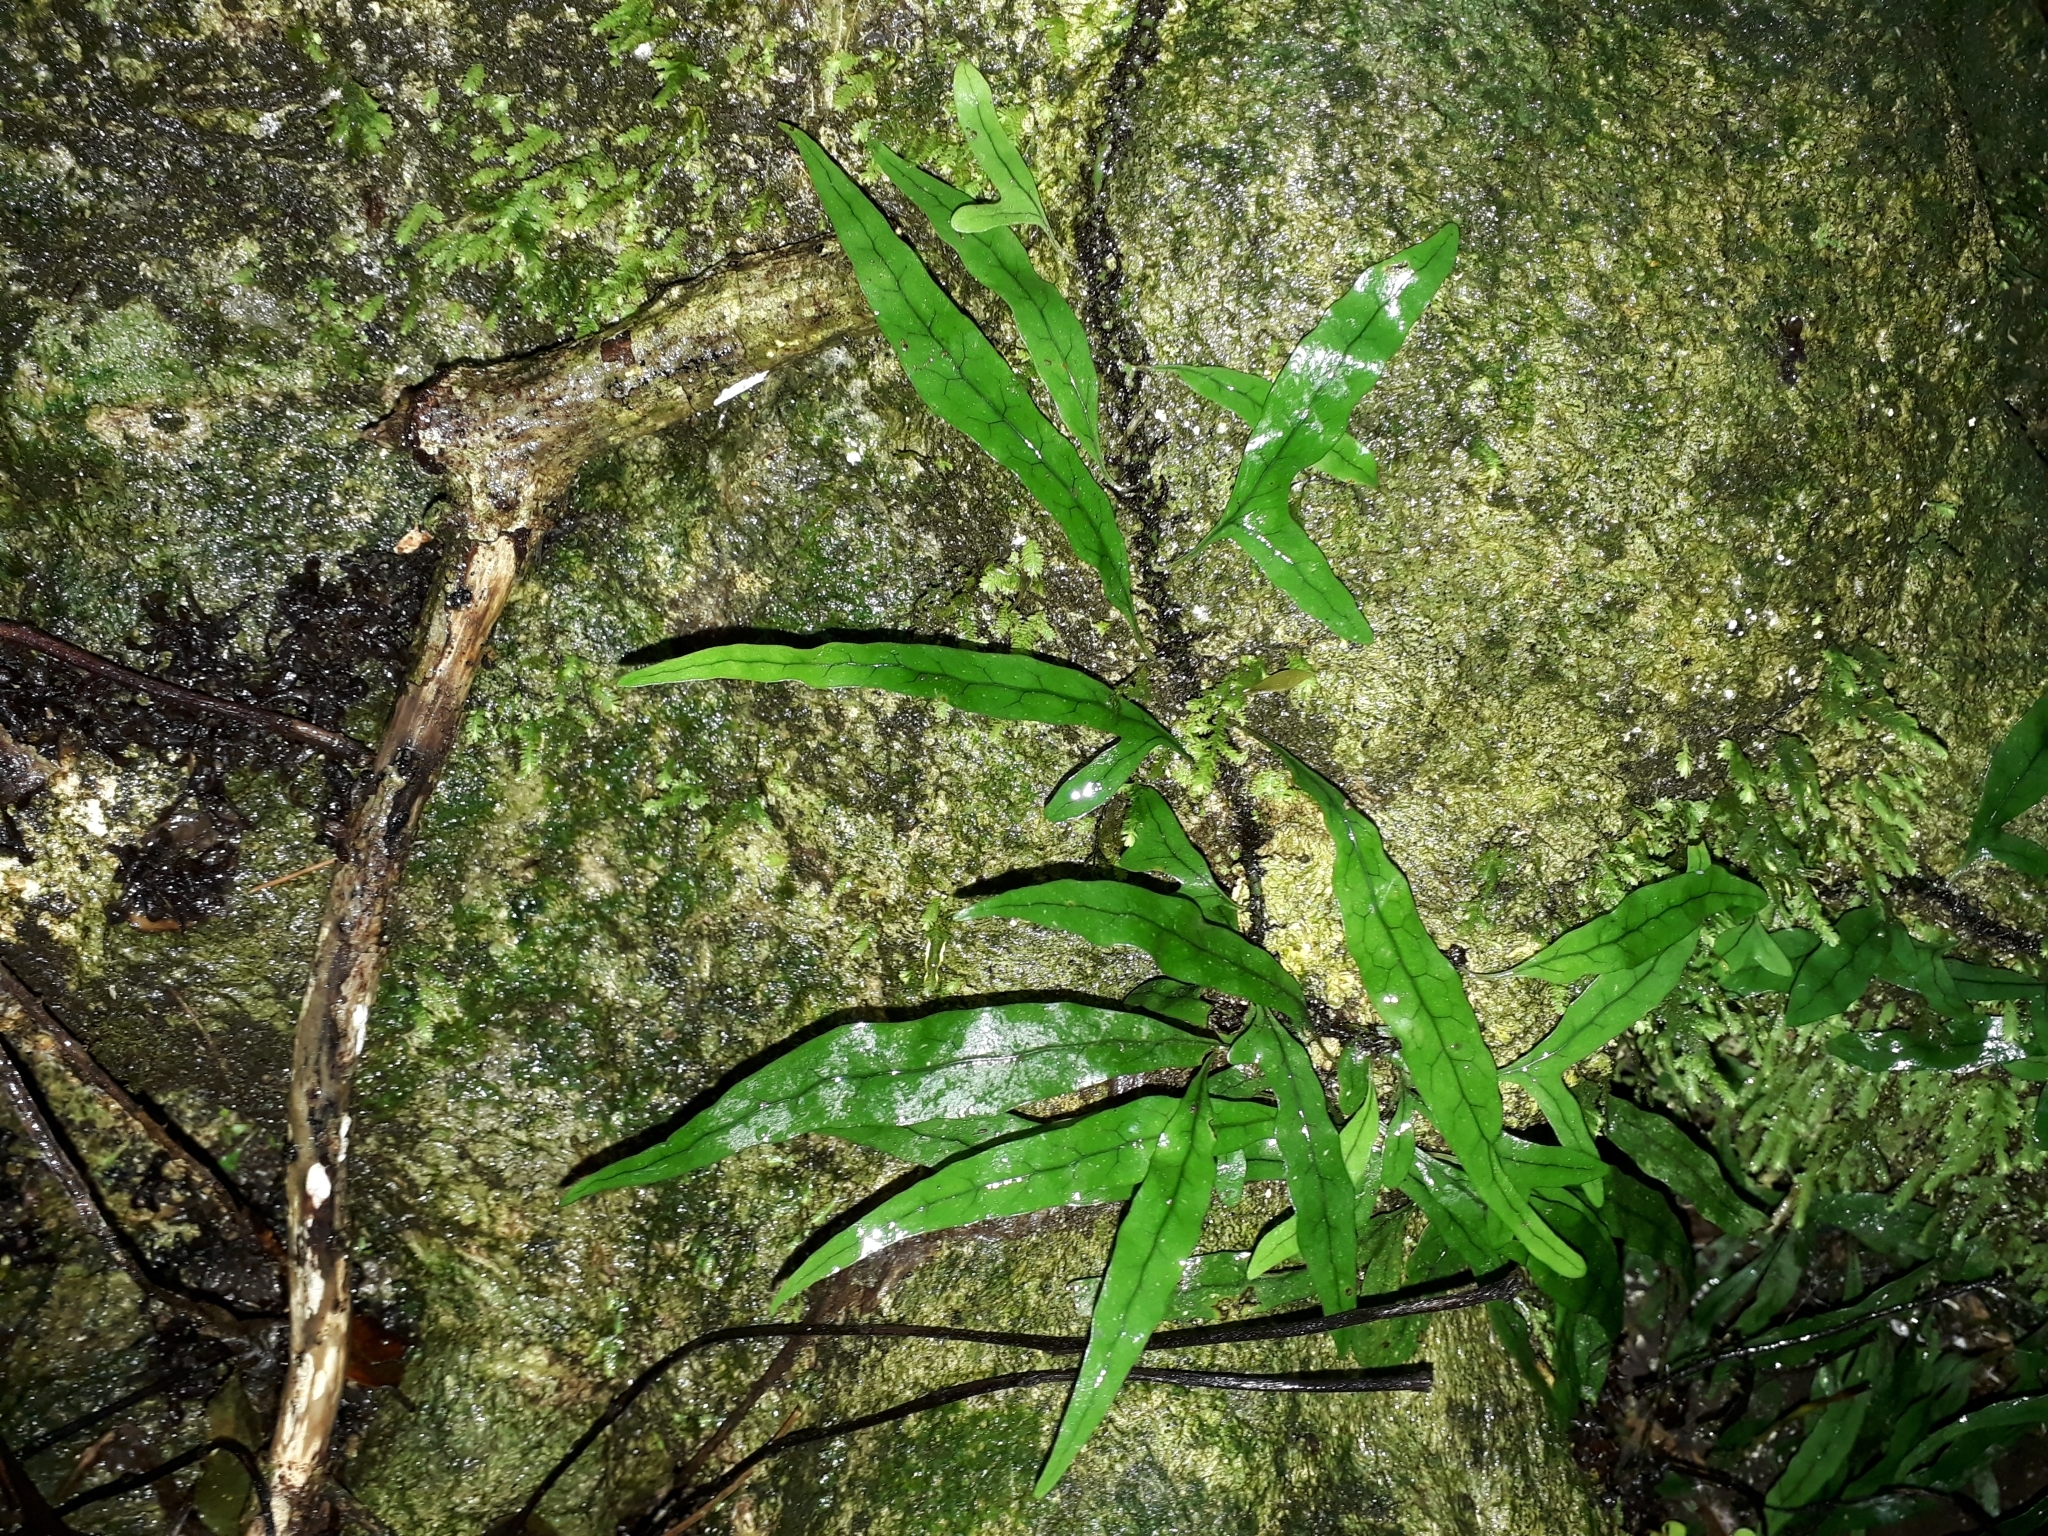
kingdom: Plantae
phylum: Tracheophyta
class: Polypodiopsida
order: Polypodiales
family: Polypodiaceae
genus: Lecanopteris
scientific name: Lecanopteris scandens
